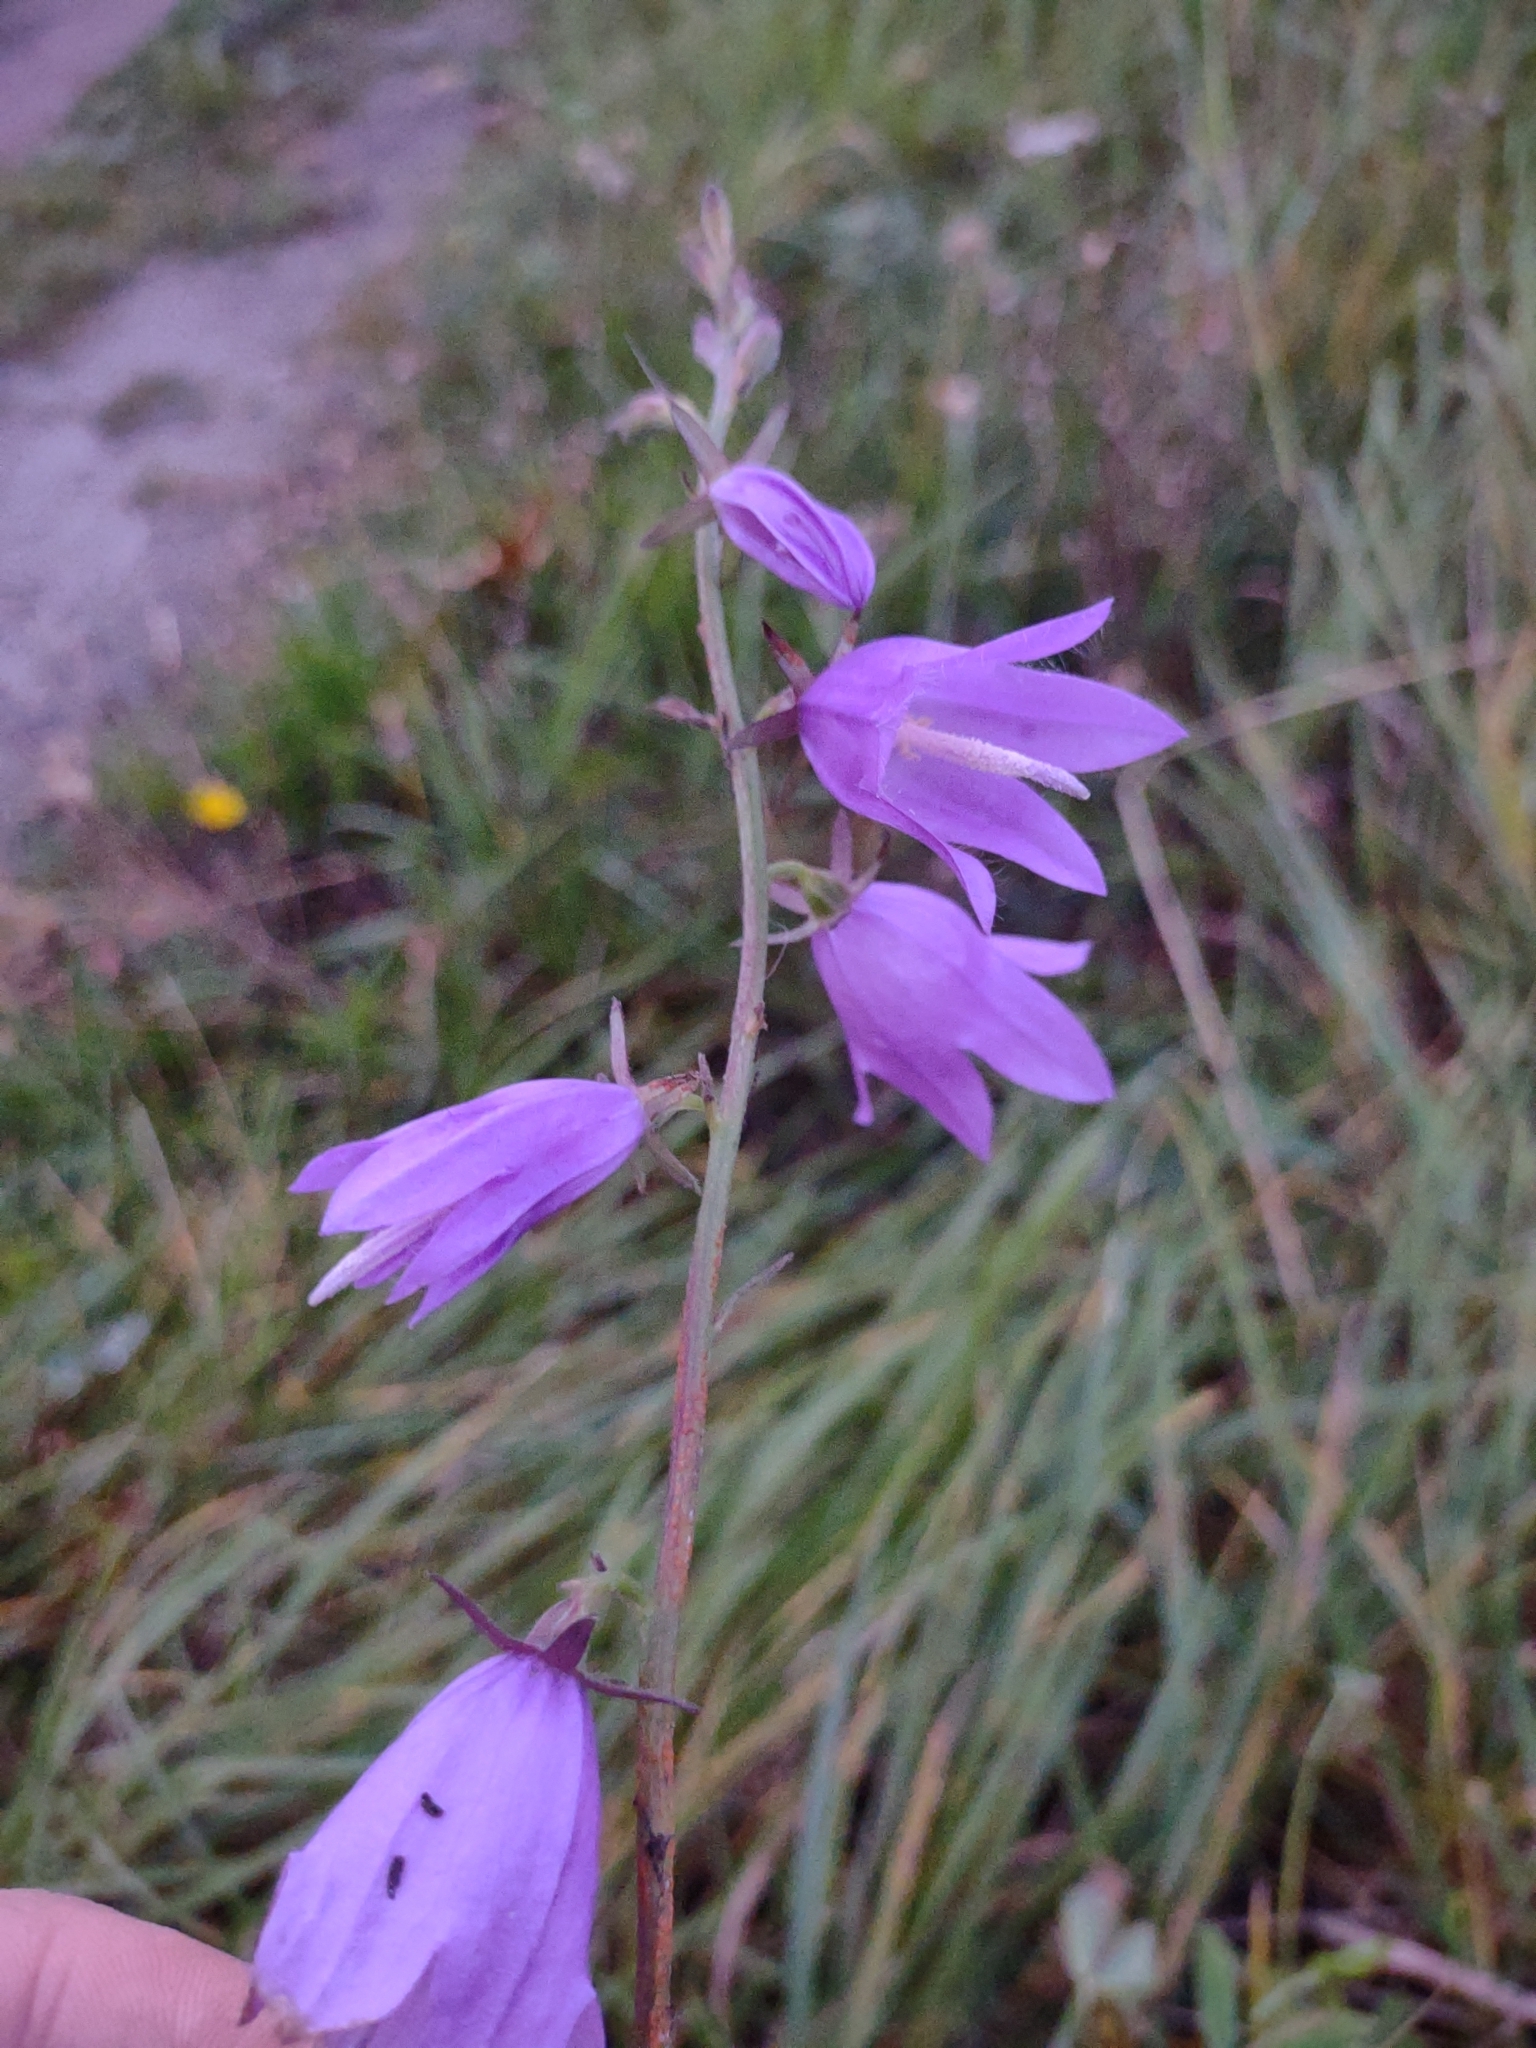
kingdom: Plantae
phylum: Tracheophyta
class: Magnoliopsida
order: Asterales
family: Campanulaceae
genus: Campanula
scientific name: Campanula rapunculoides
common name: Creeping bellflower
